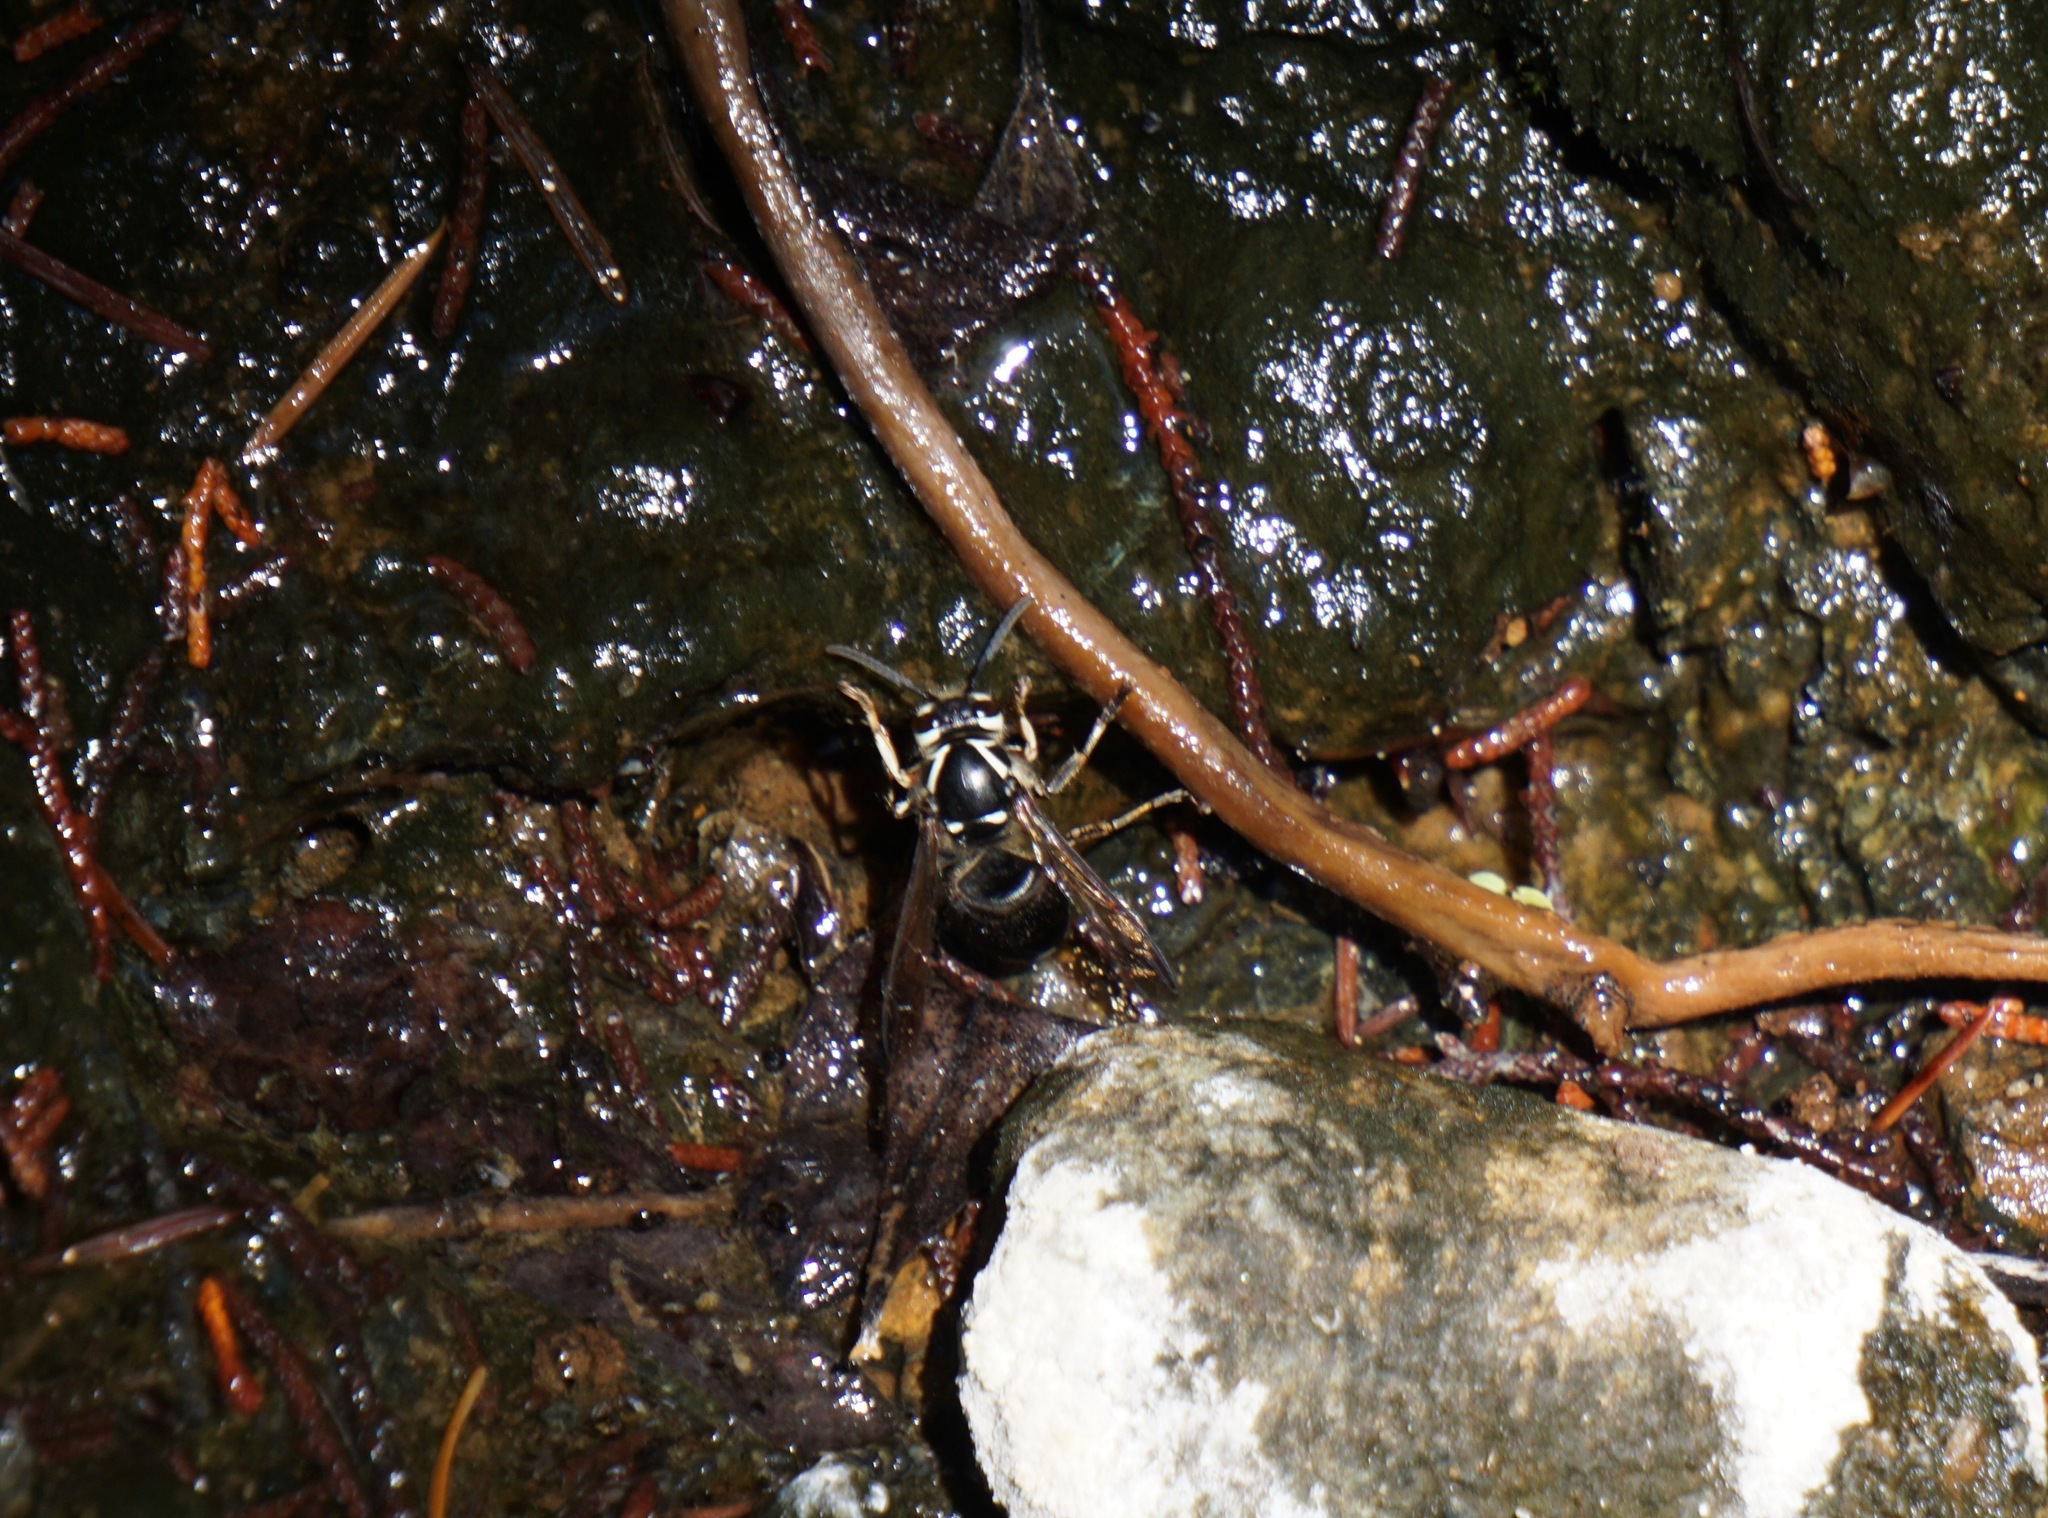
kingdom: Animalia
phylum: Arthropoda
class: Insecta
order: Hymenoptera
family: Vespidae
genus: Dolichovespula
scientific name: Dolichovespula maculata
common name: Bald-faced hornet
